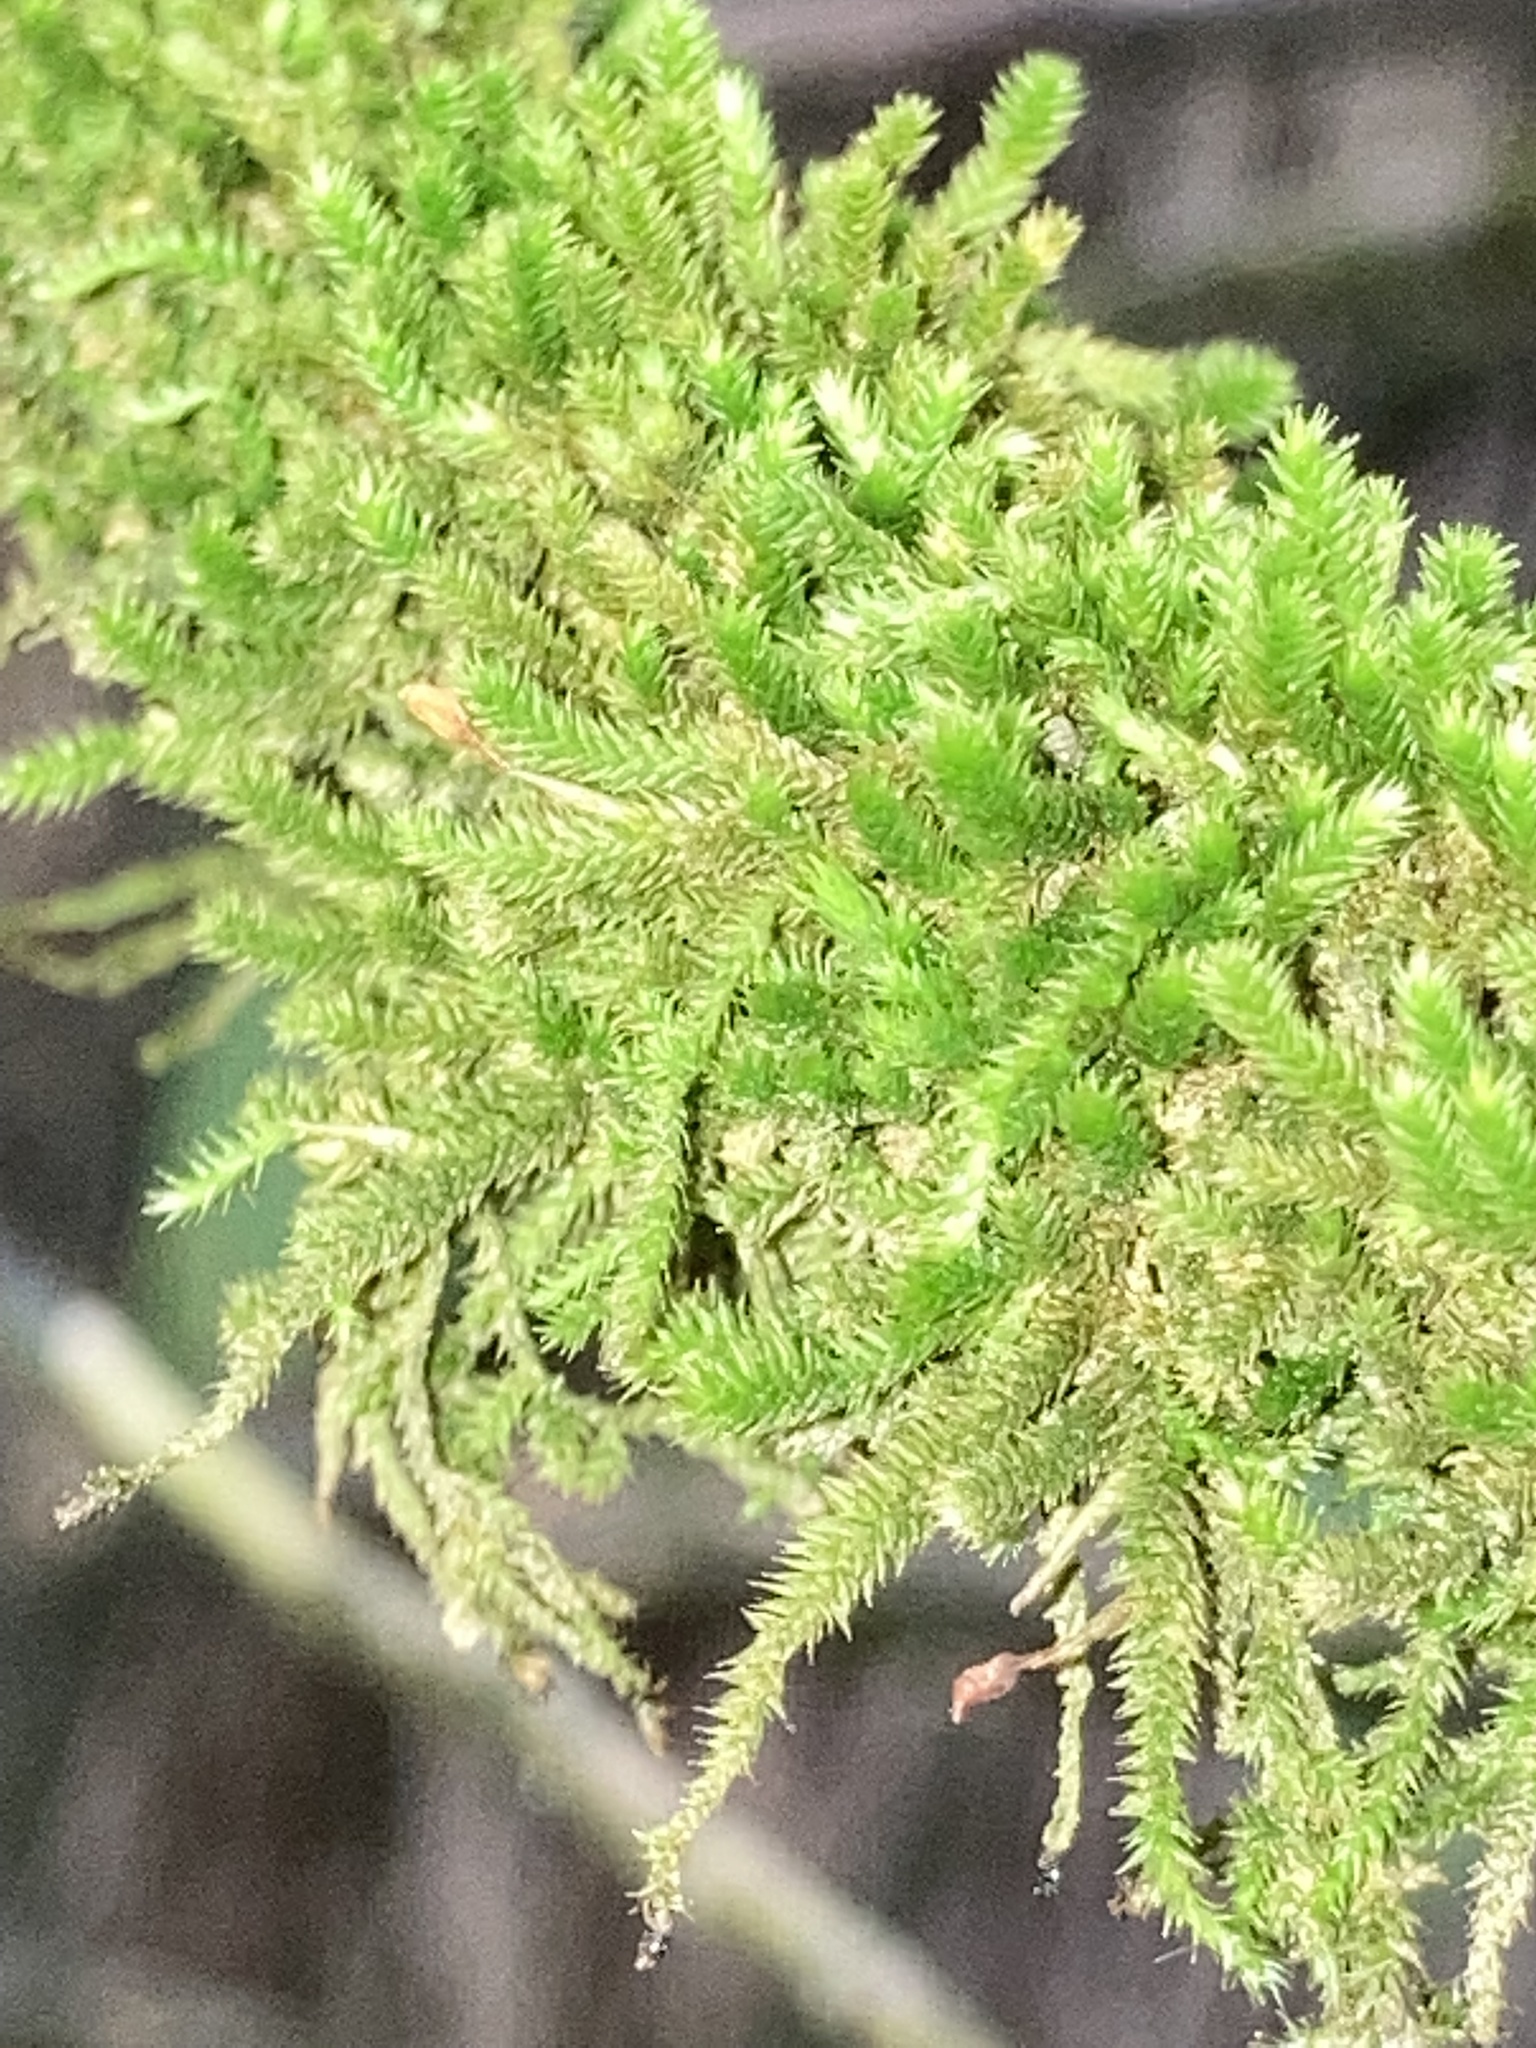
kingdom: Plantae
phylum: Bryophyta
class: Bryopsida
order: Hypnales
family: Leucodontaceae
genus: Leucodon
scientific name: Leucodon julaceus
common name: Smooth hook moss
